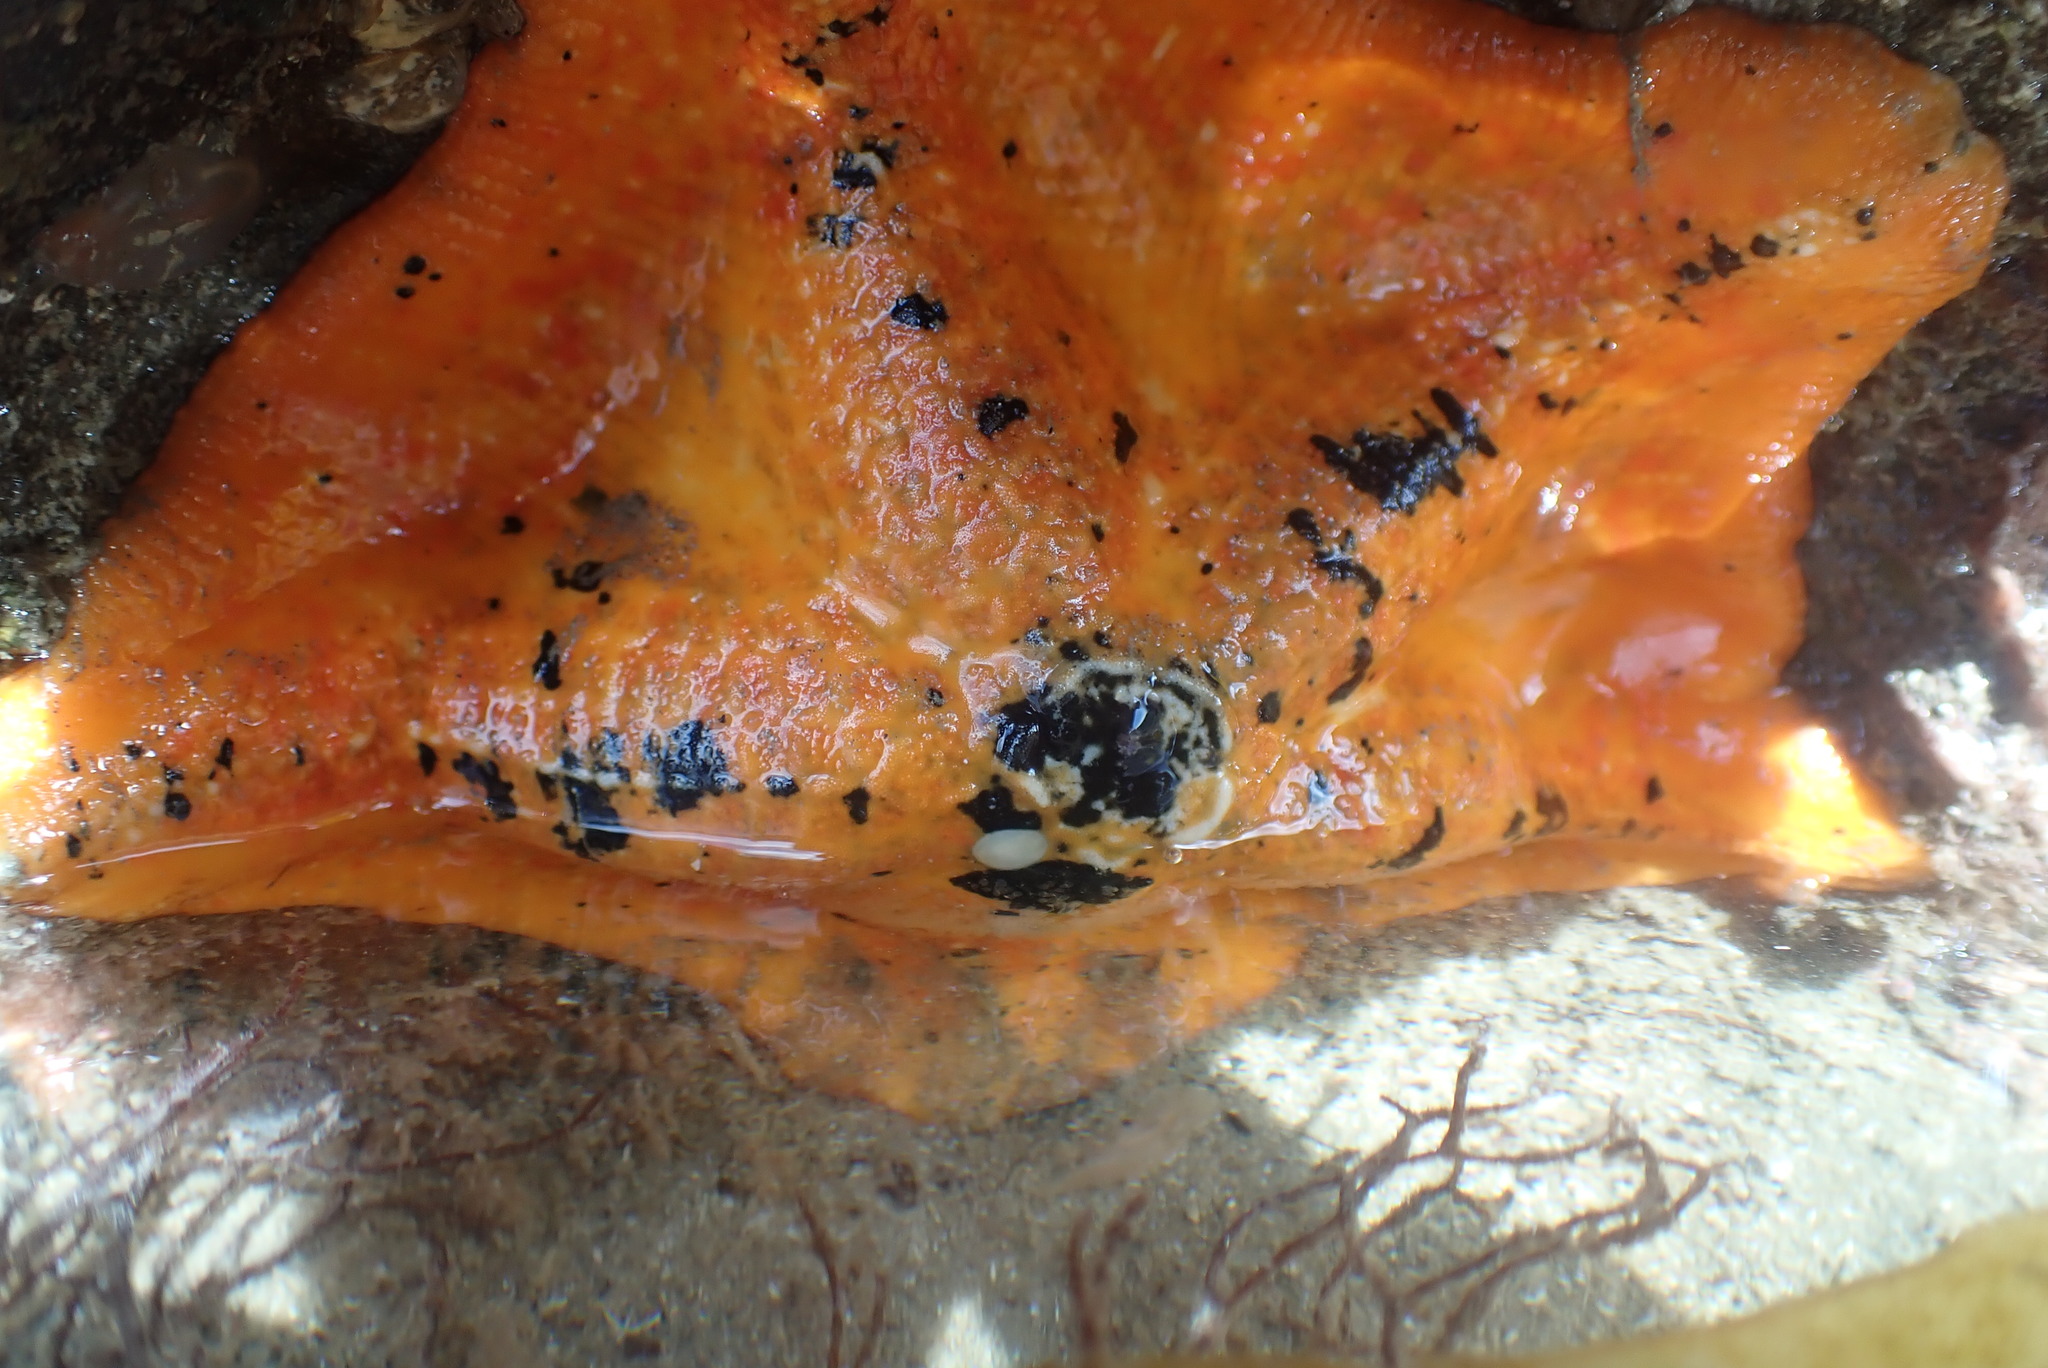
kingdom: Animalia
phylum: Echinodermata
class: Asteroidea
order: Valvatida
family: Asterinidae
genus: Stegnaster
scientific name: Stegnaster inflatus
